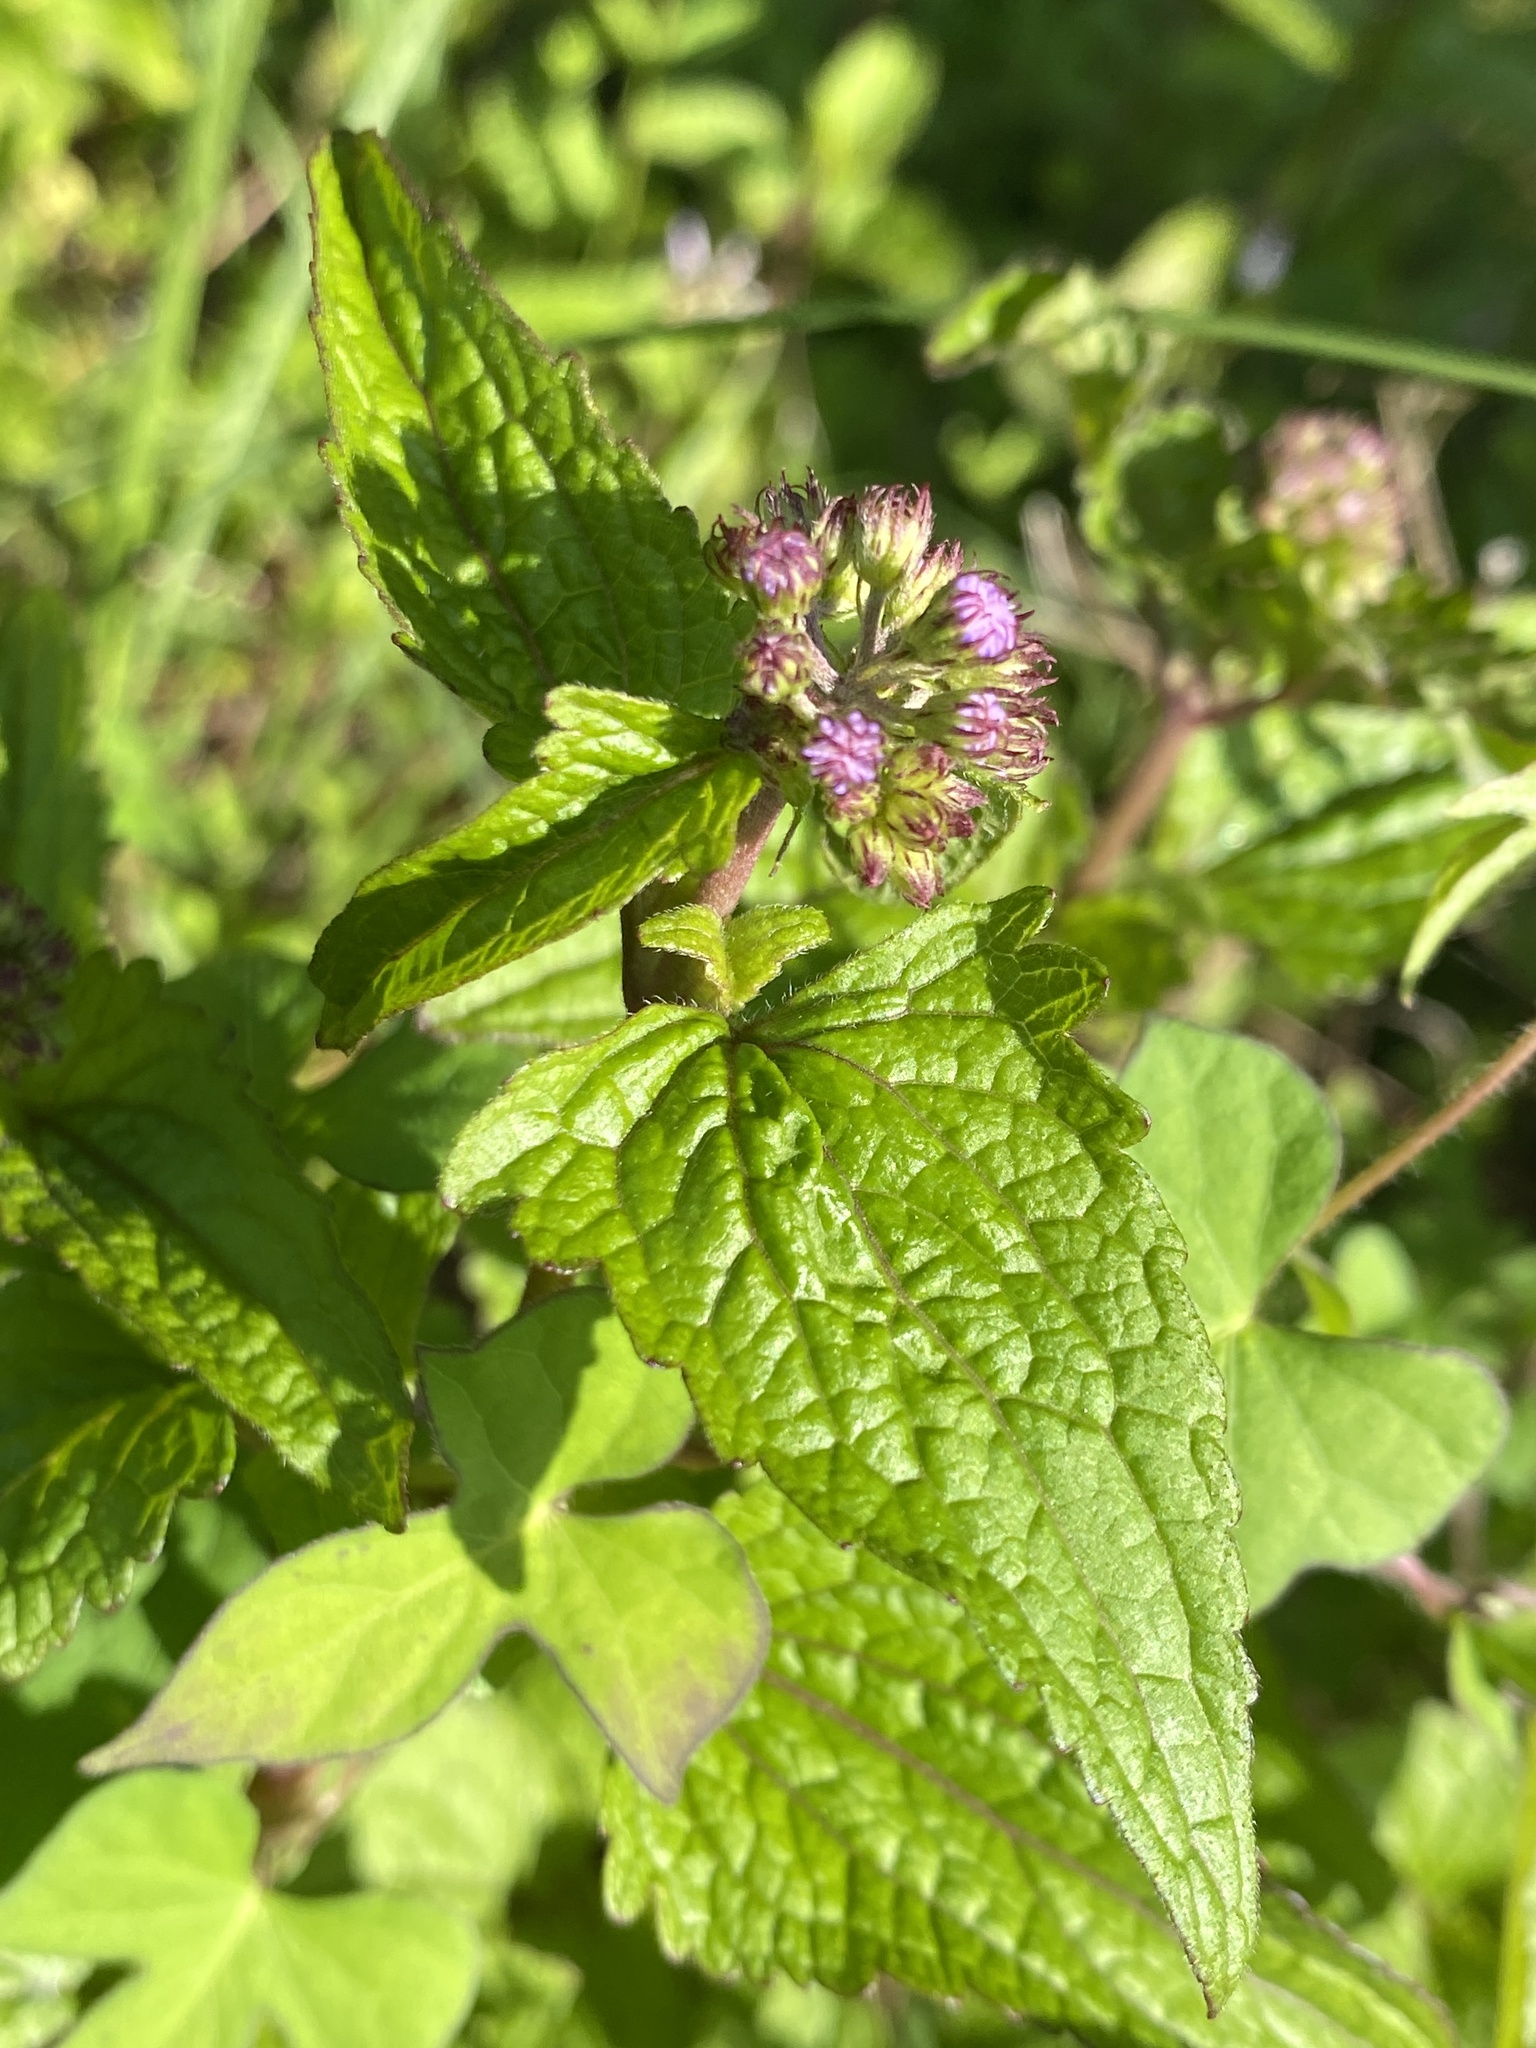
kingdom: Plantae
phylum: Tracheophyta
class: Magnoliopsida
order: Asterales
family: Asteraceae
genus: Conoclinium
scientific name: Conoclinium coelestinum
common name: Blue mistflower
